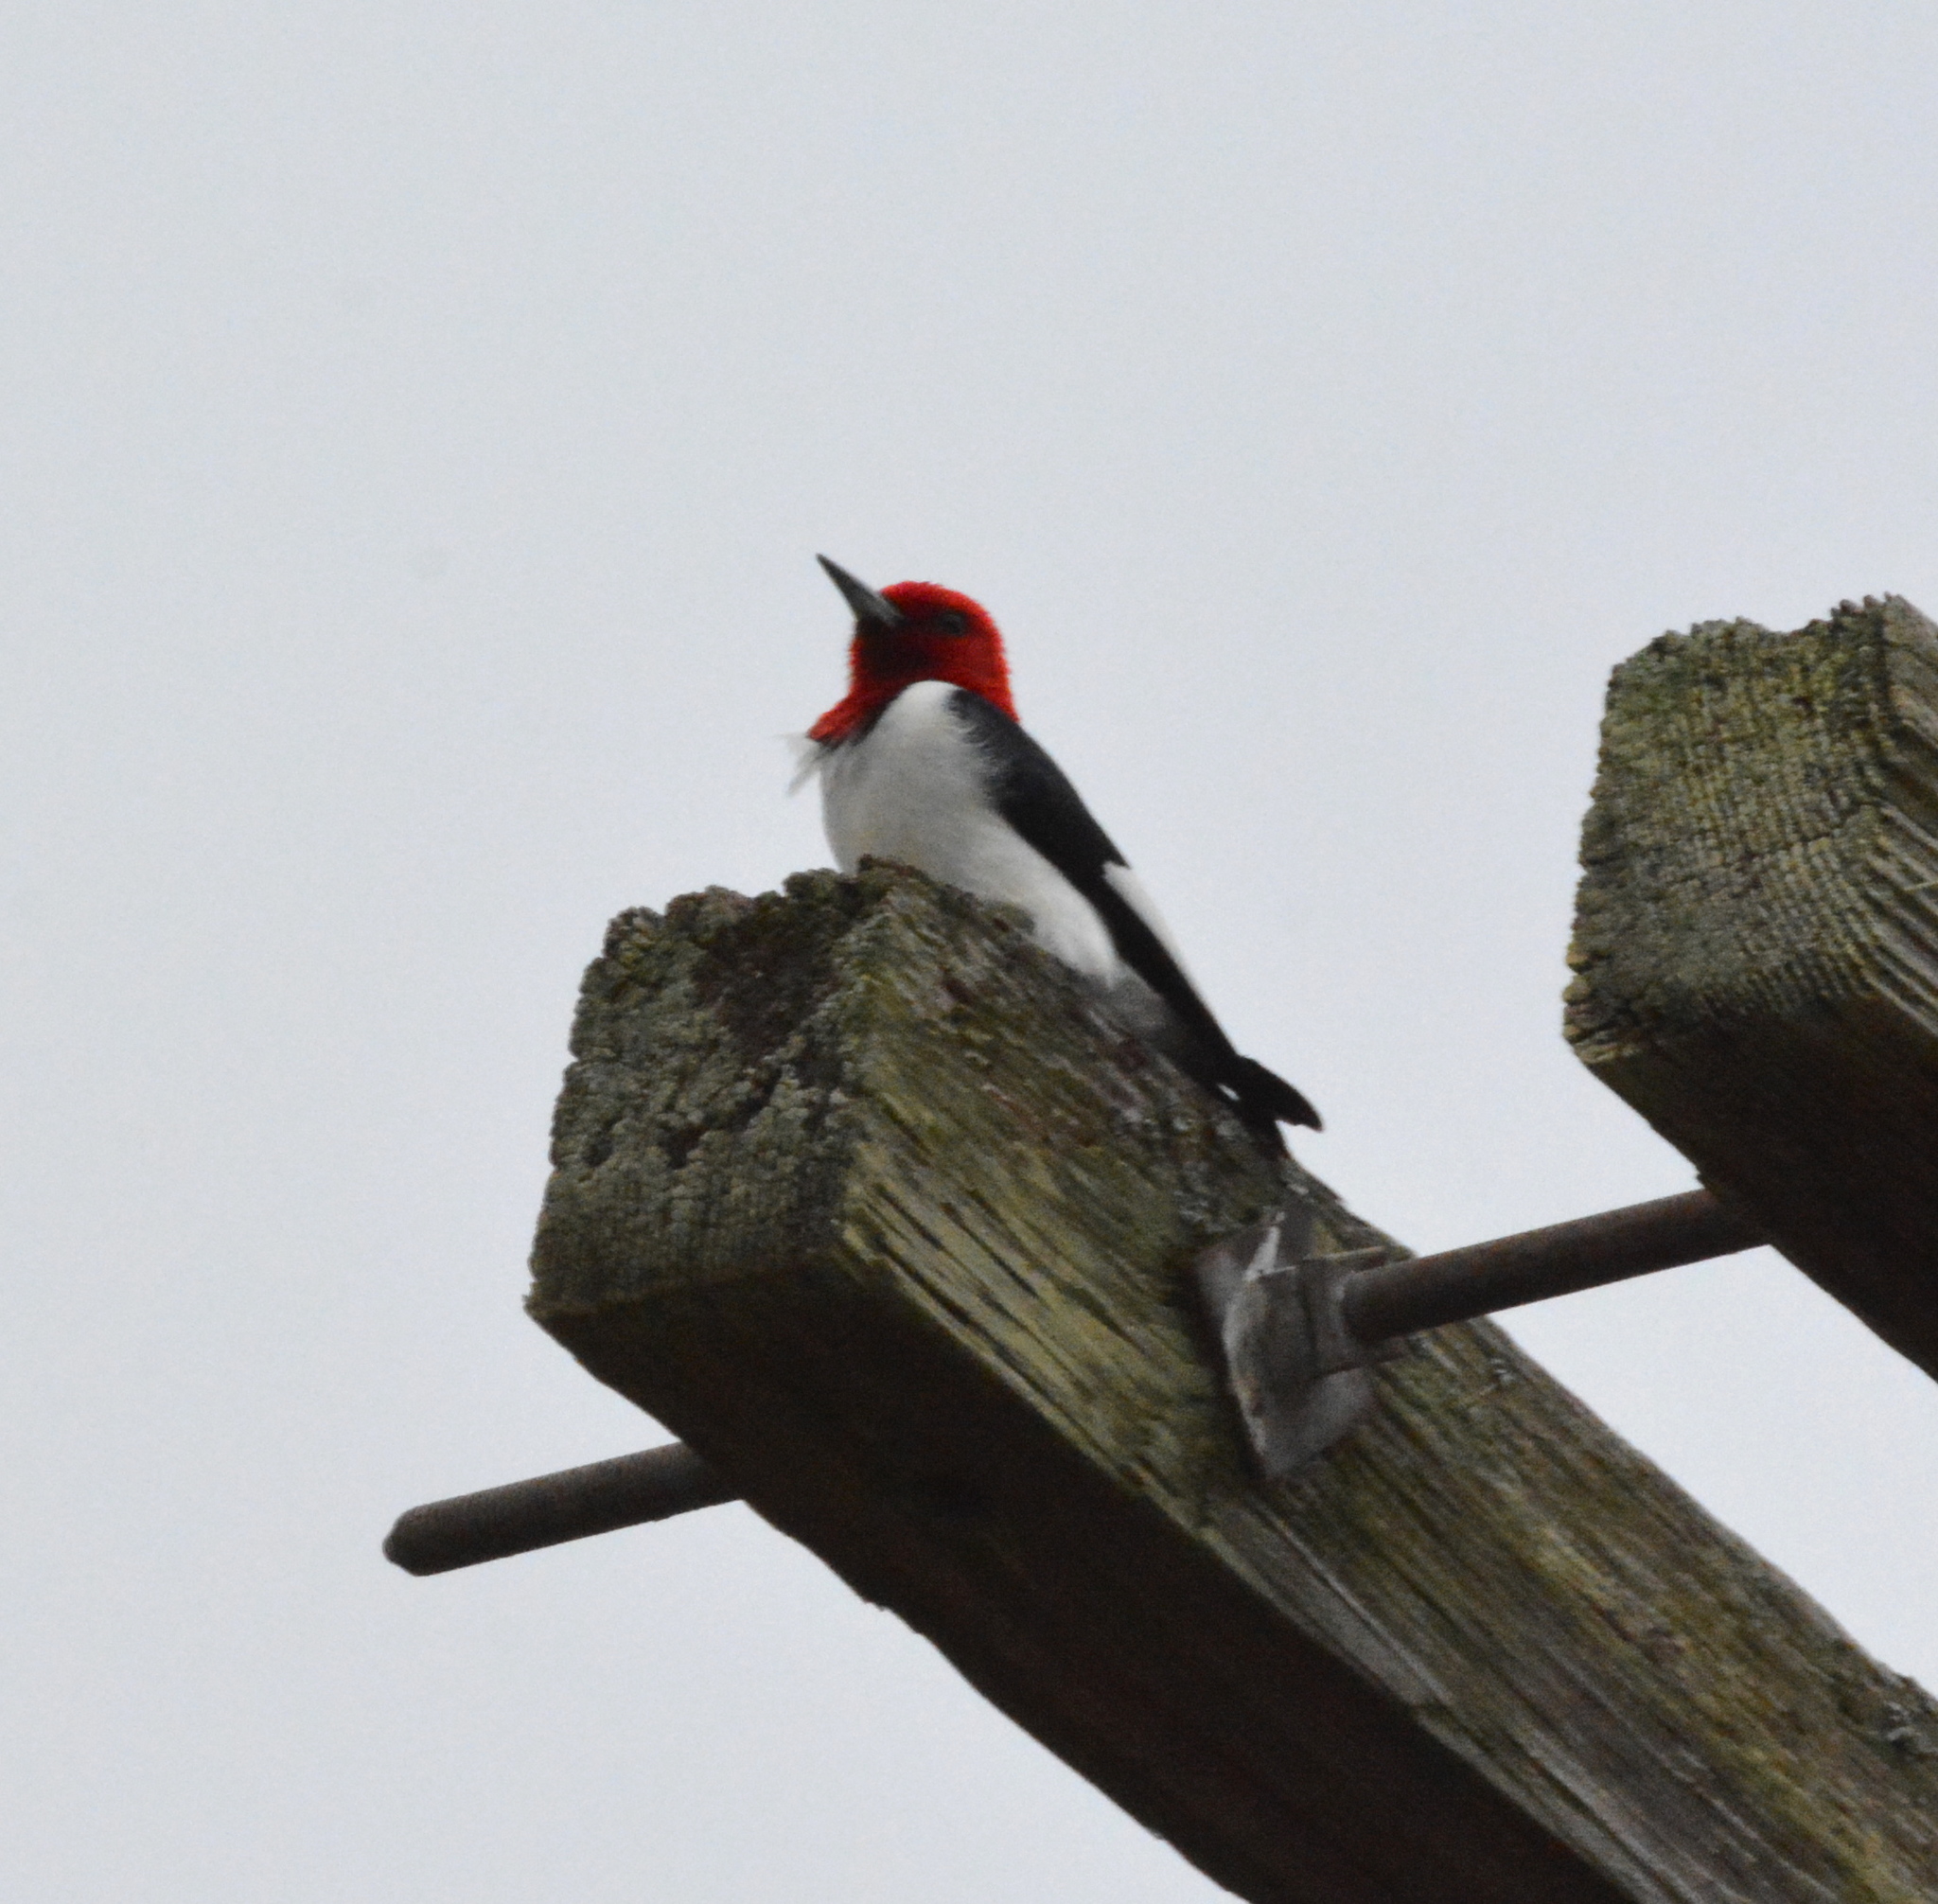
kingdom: Animalia
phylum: Chordata
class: Aves
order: Piciformes
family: Picidae
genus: Melanerpes
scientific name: Melanerpes erythrocephalus
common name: Red-headed woodpecker
